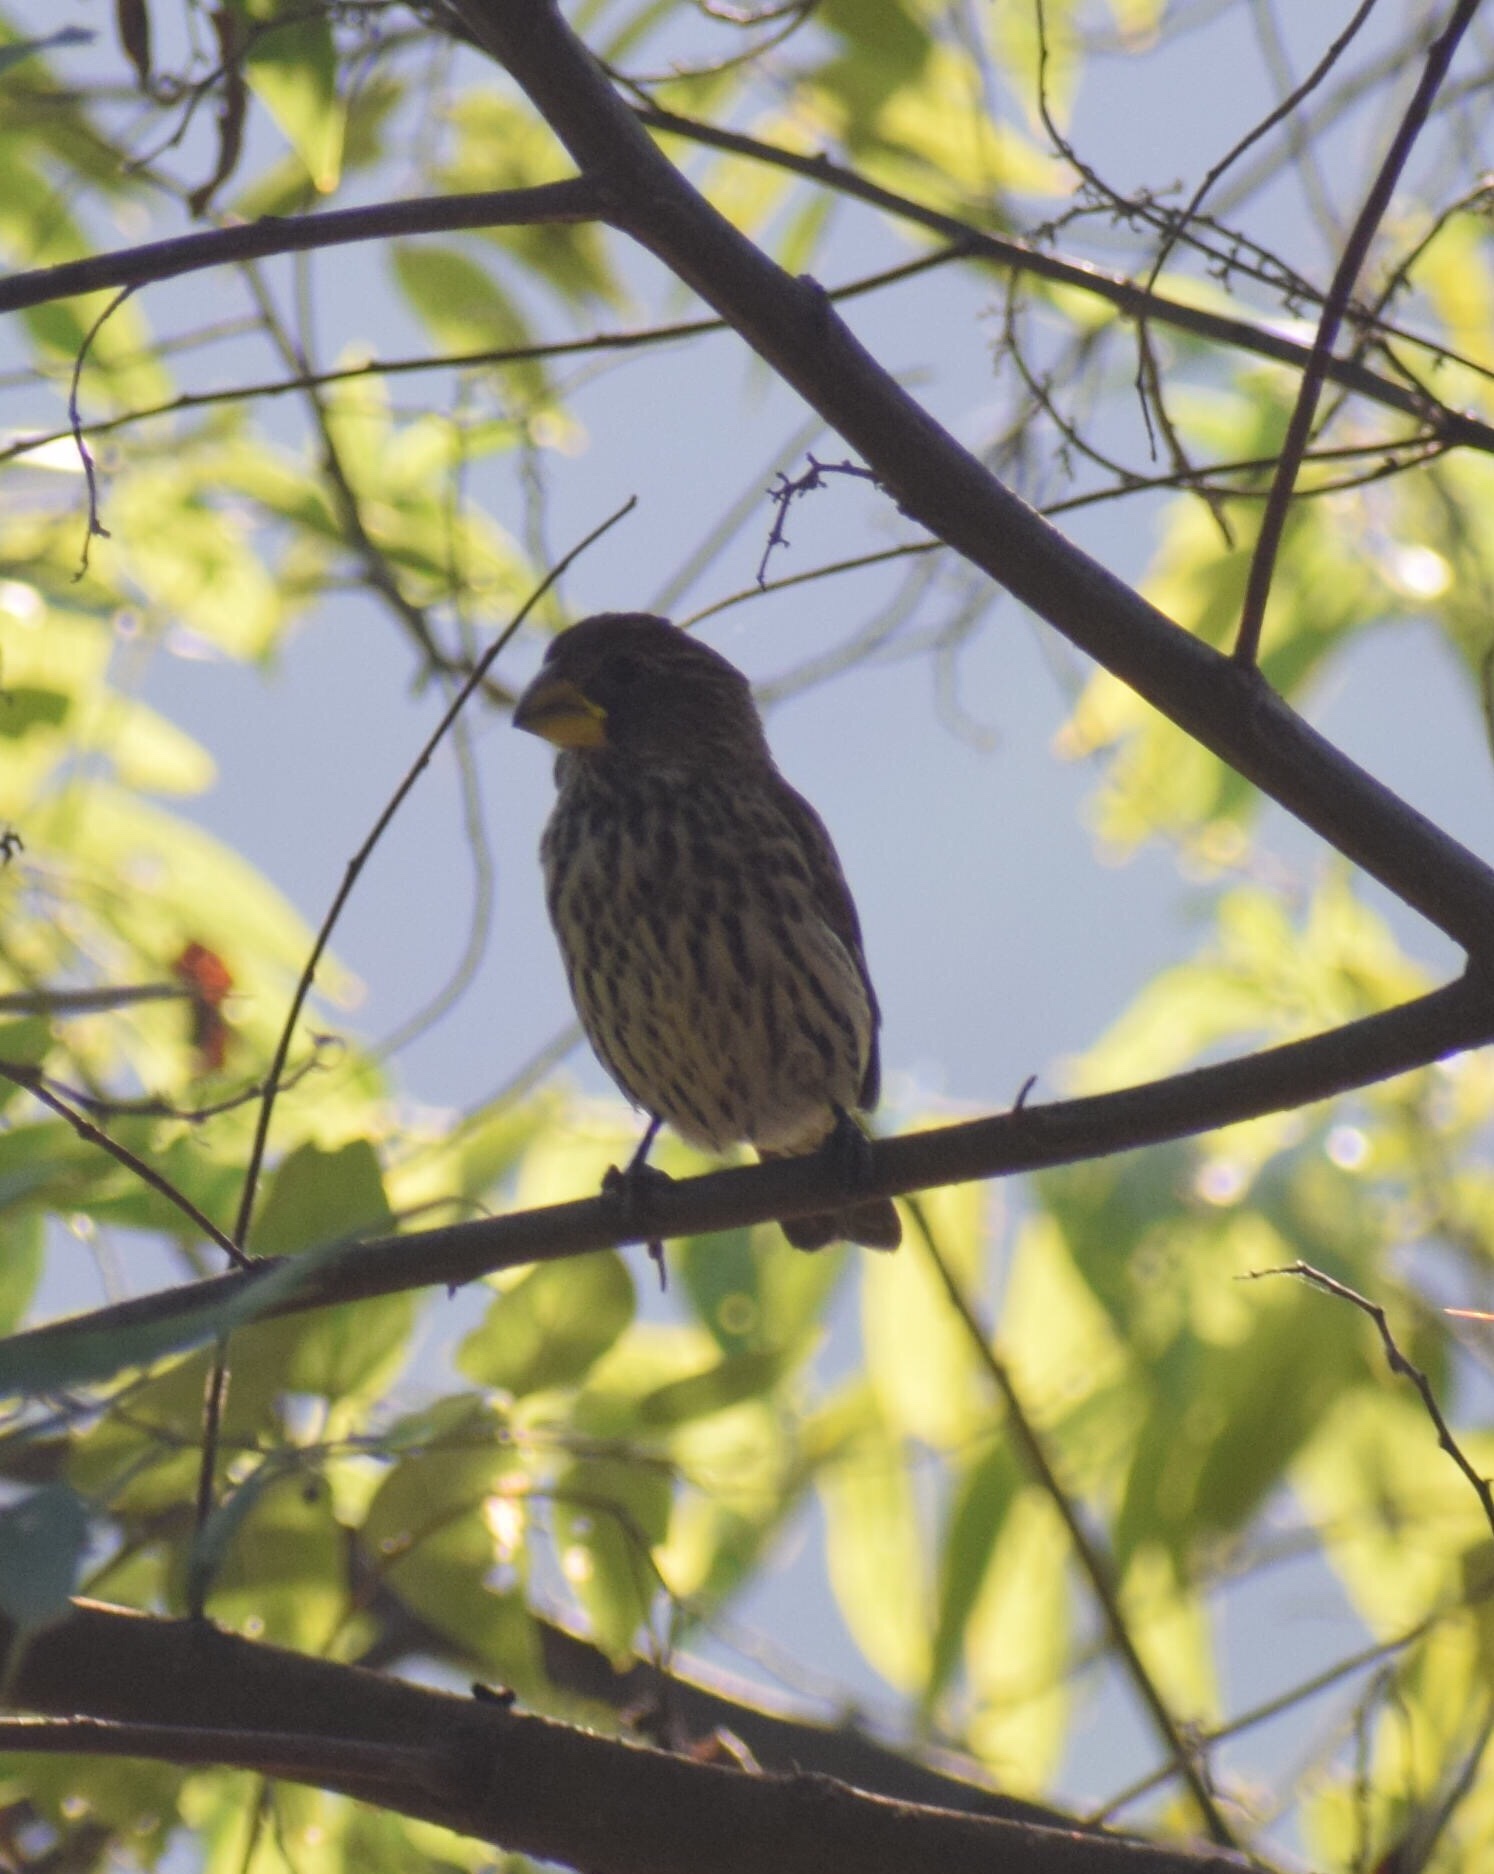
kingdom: Animalia
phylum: Chordata
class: Aves
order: Passeriformes
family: Ploceidae
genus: Amblyospiza
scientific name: Amblyospiza albifrons
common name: Thick-billed weaver
